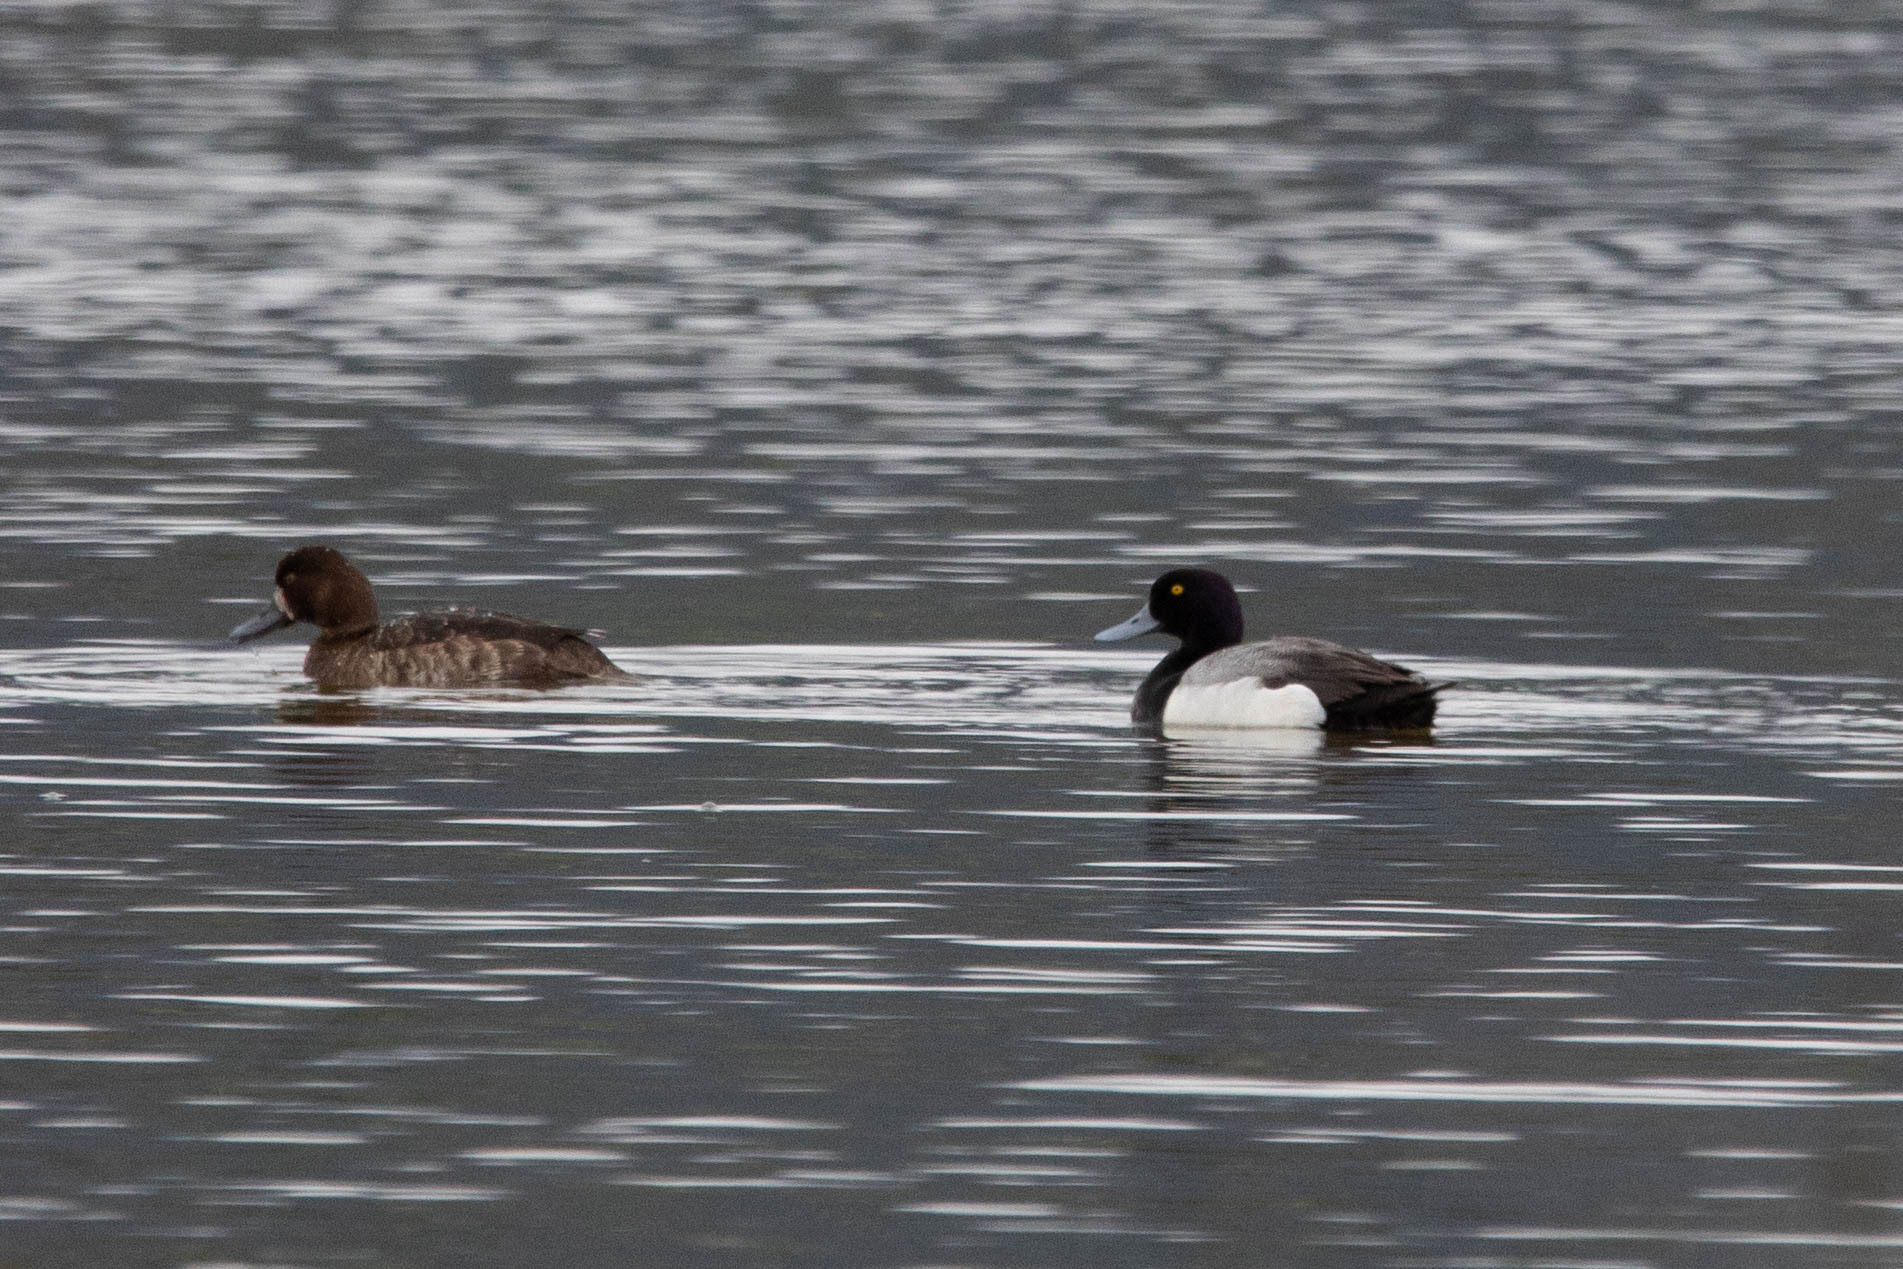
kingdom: Animalia
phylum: Chordata
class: Aves
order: Anseriformes
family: Anatidae
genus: Aythya
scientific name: Aythya marila
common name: Greater scaup
